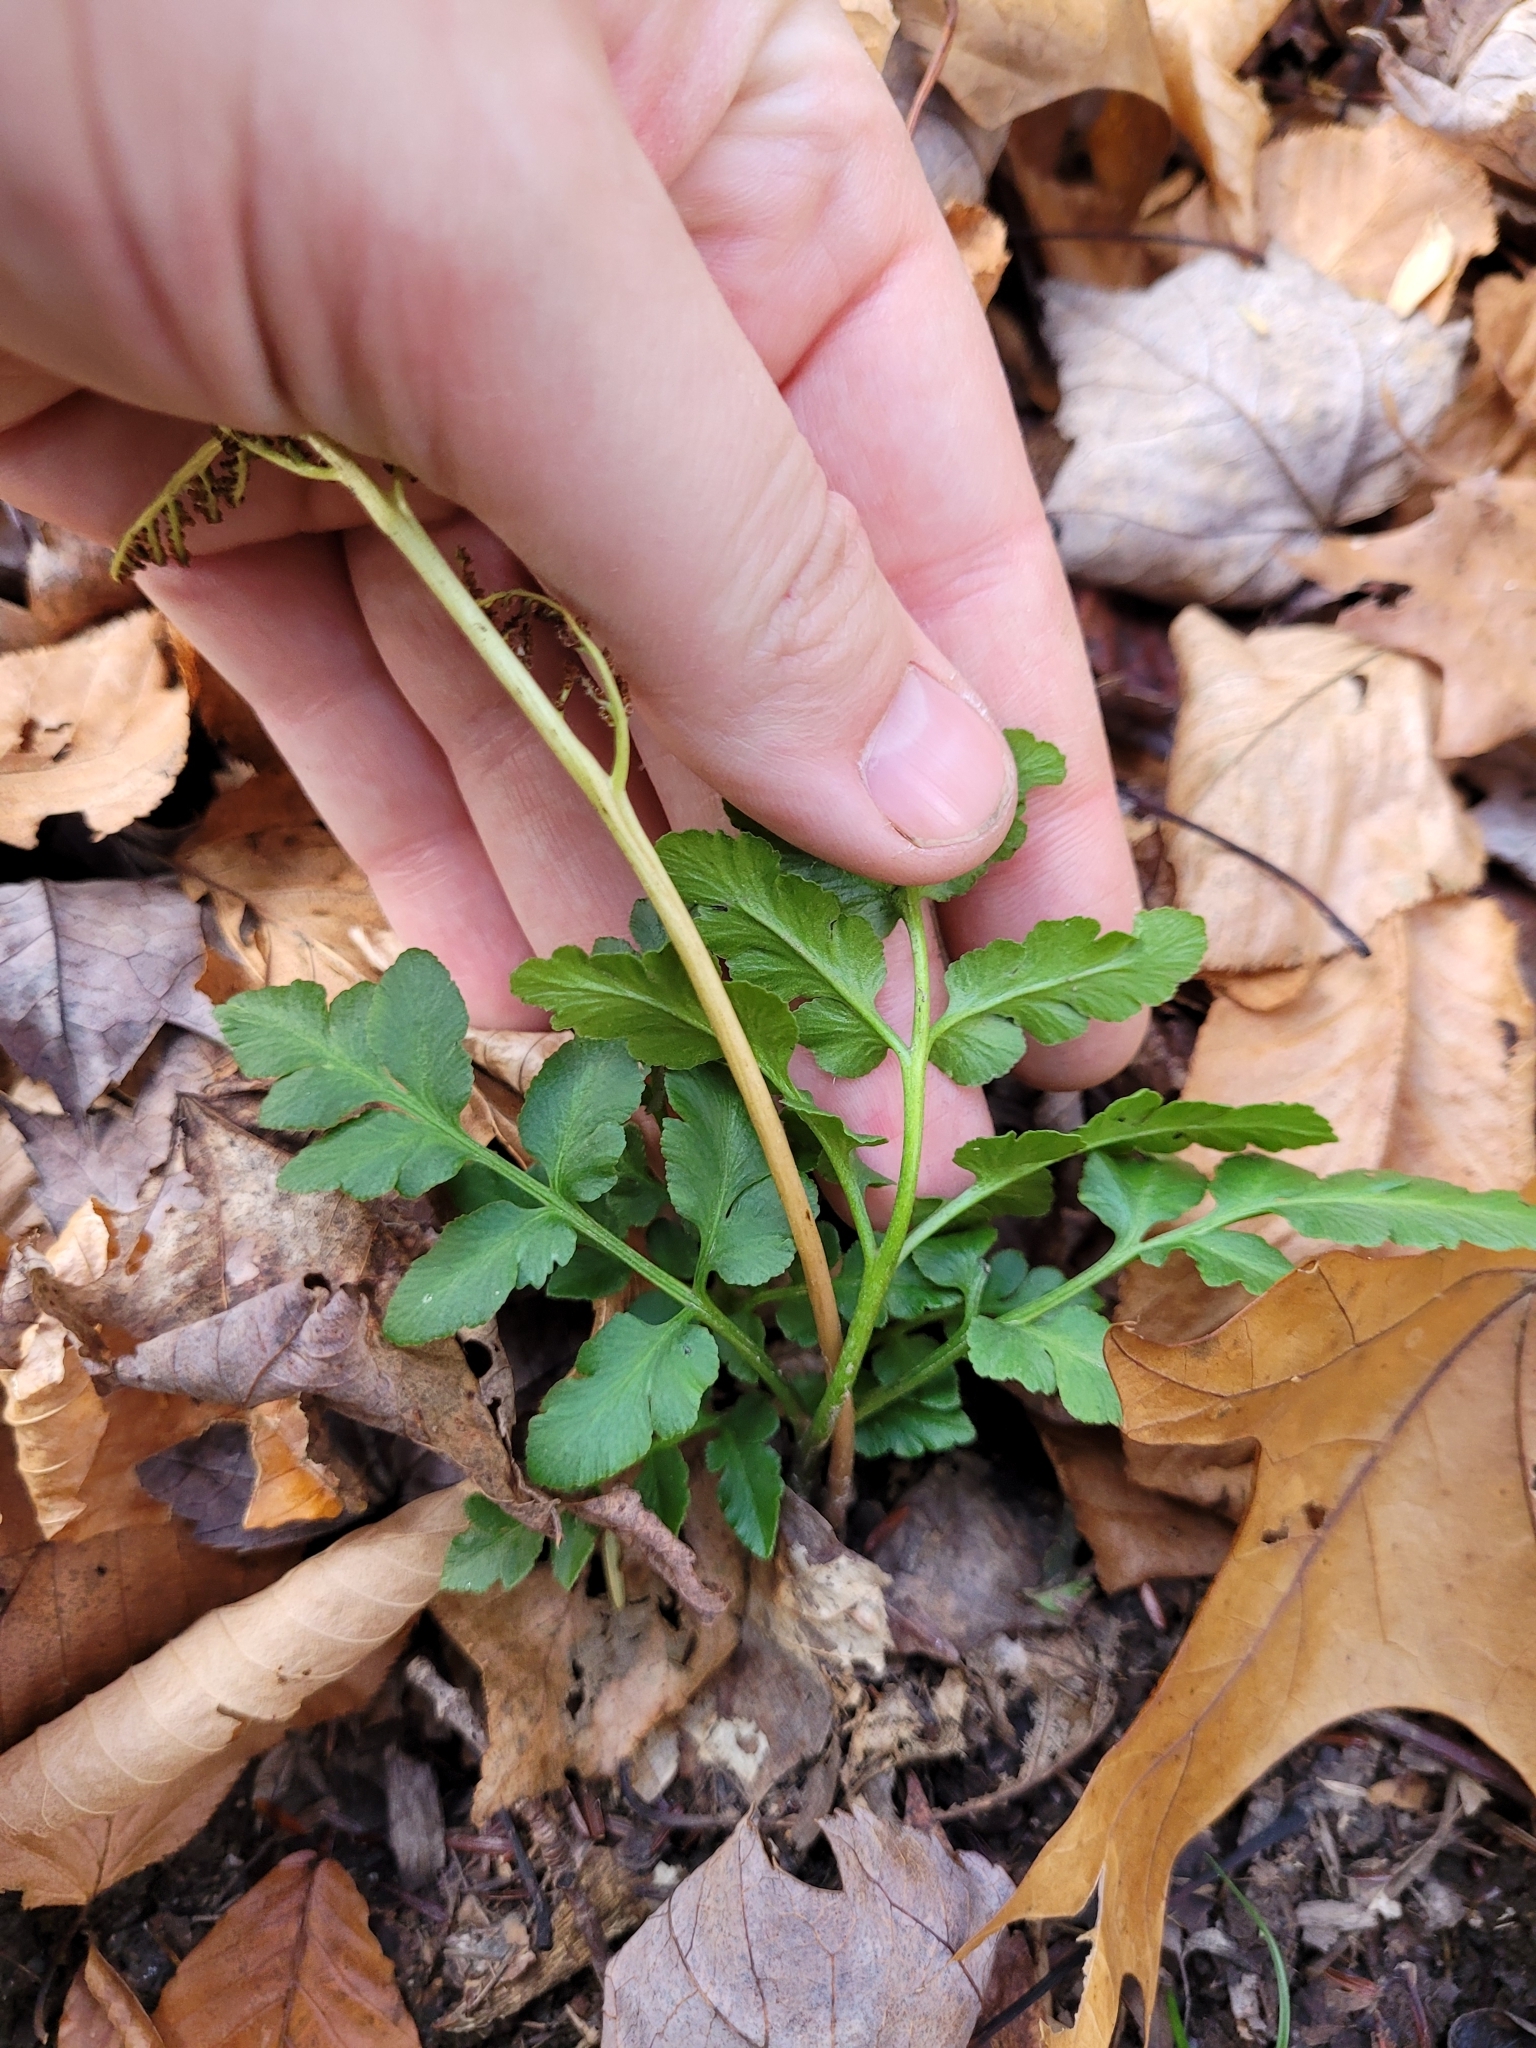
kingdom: Plantae
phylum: Tracheophyta
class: Polypodiopsida
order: Ophioglossales
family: Ophioglossaceae
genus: Sceptridium
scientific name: Sceptridium oneidense
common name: Blunt-lobed grapefern
